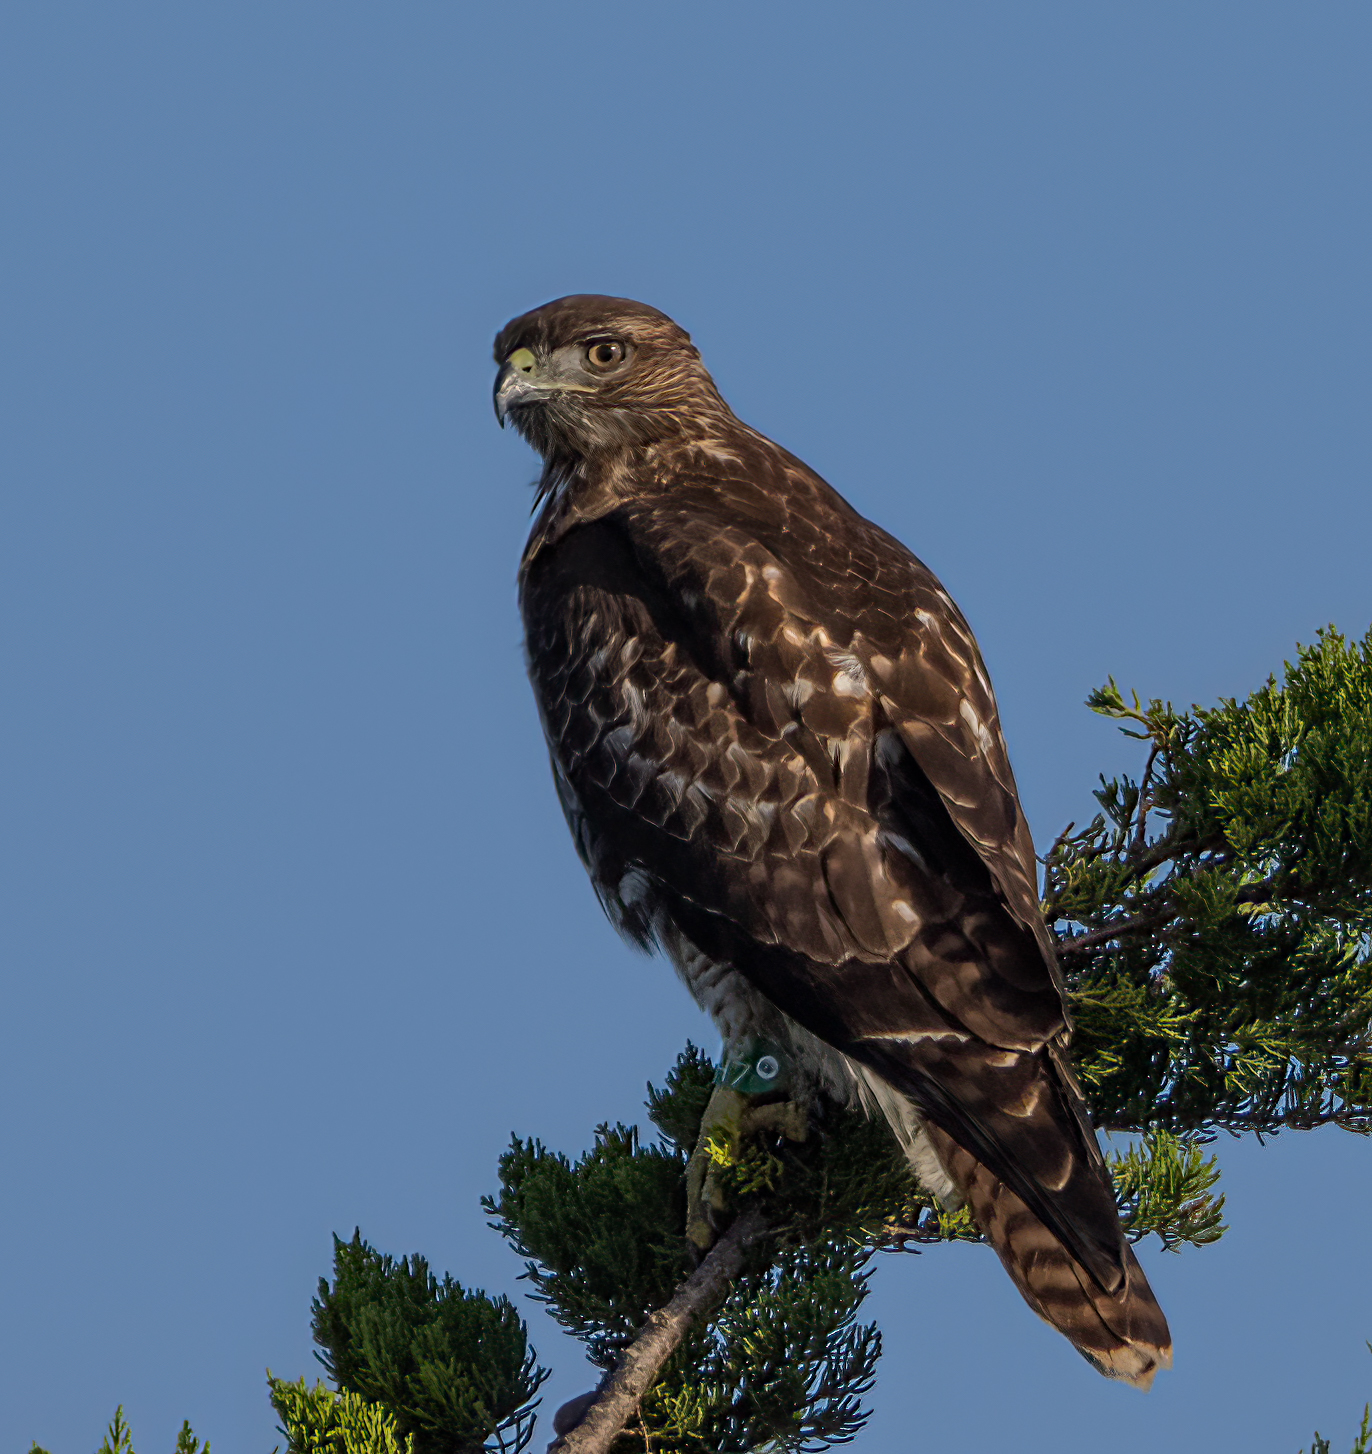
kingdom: Animalia
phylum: Chordata
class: Aves
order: Accipitriformes
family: Accipitridae
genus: Buteo
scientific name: Buteo jamaicensis
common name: Red-tailed hawk
